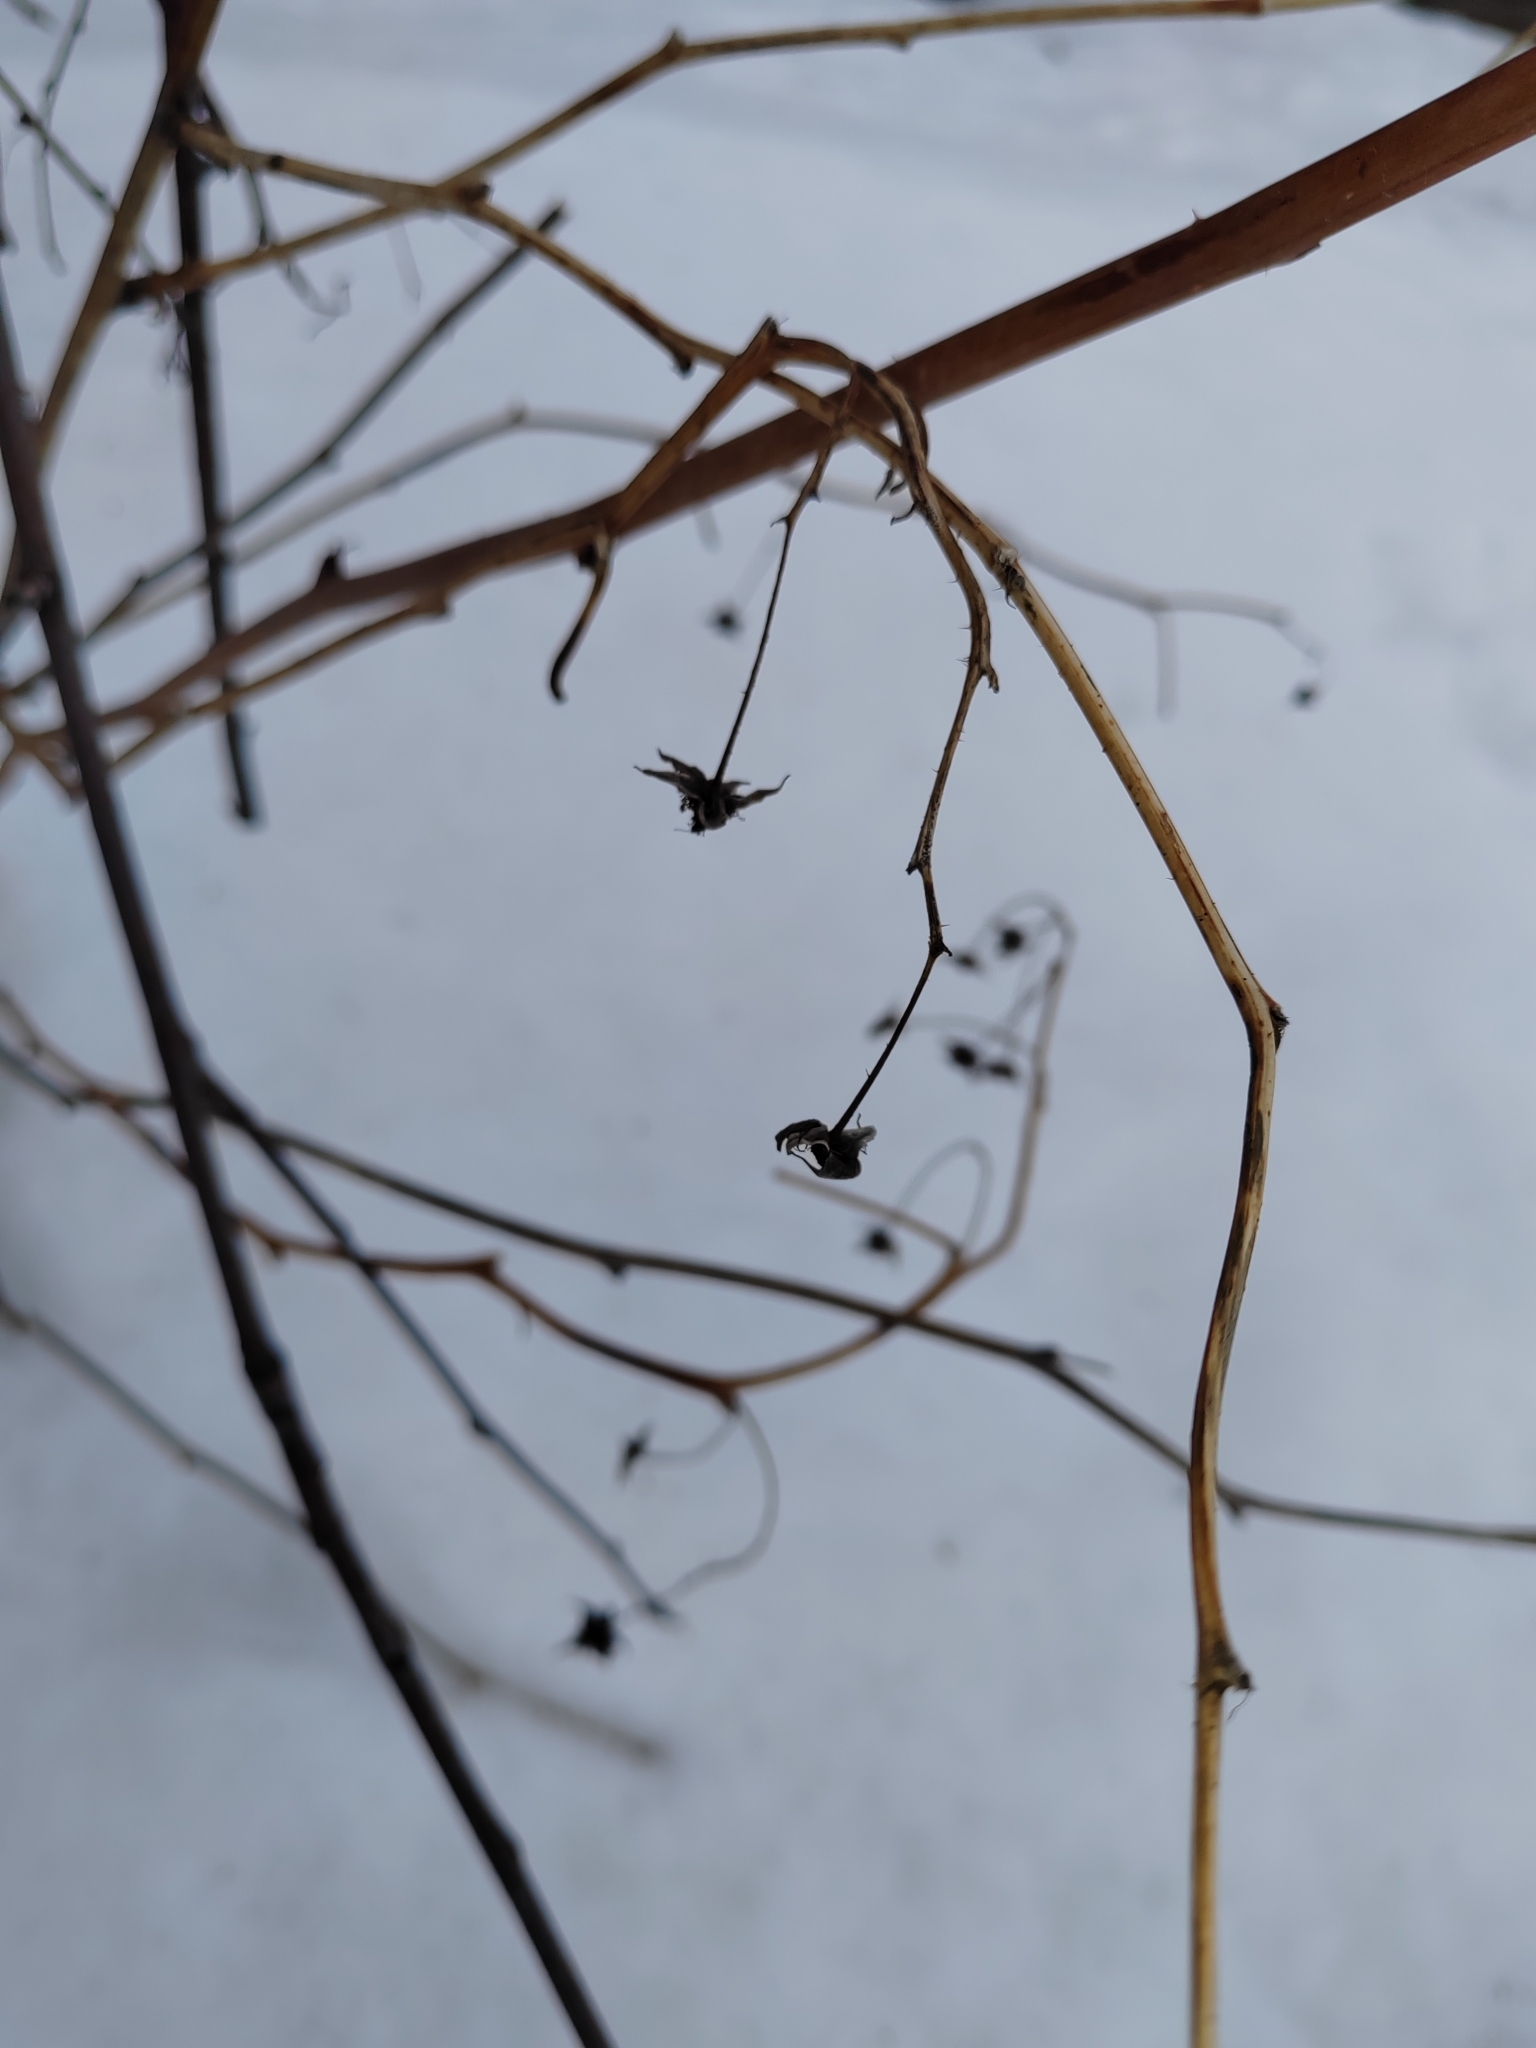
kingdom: Plantae
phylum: Tracheophyta
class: Magnoliopsida
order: Rosales
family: Rosaceae
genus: Rubus
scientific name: Rubus idaeus
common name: Raspberry
